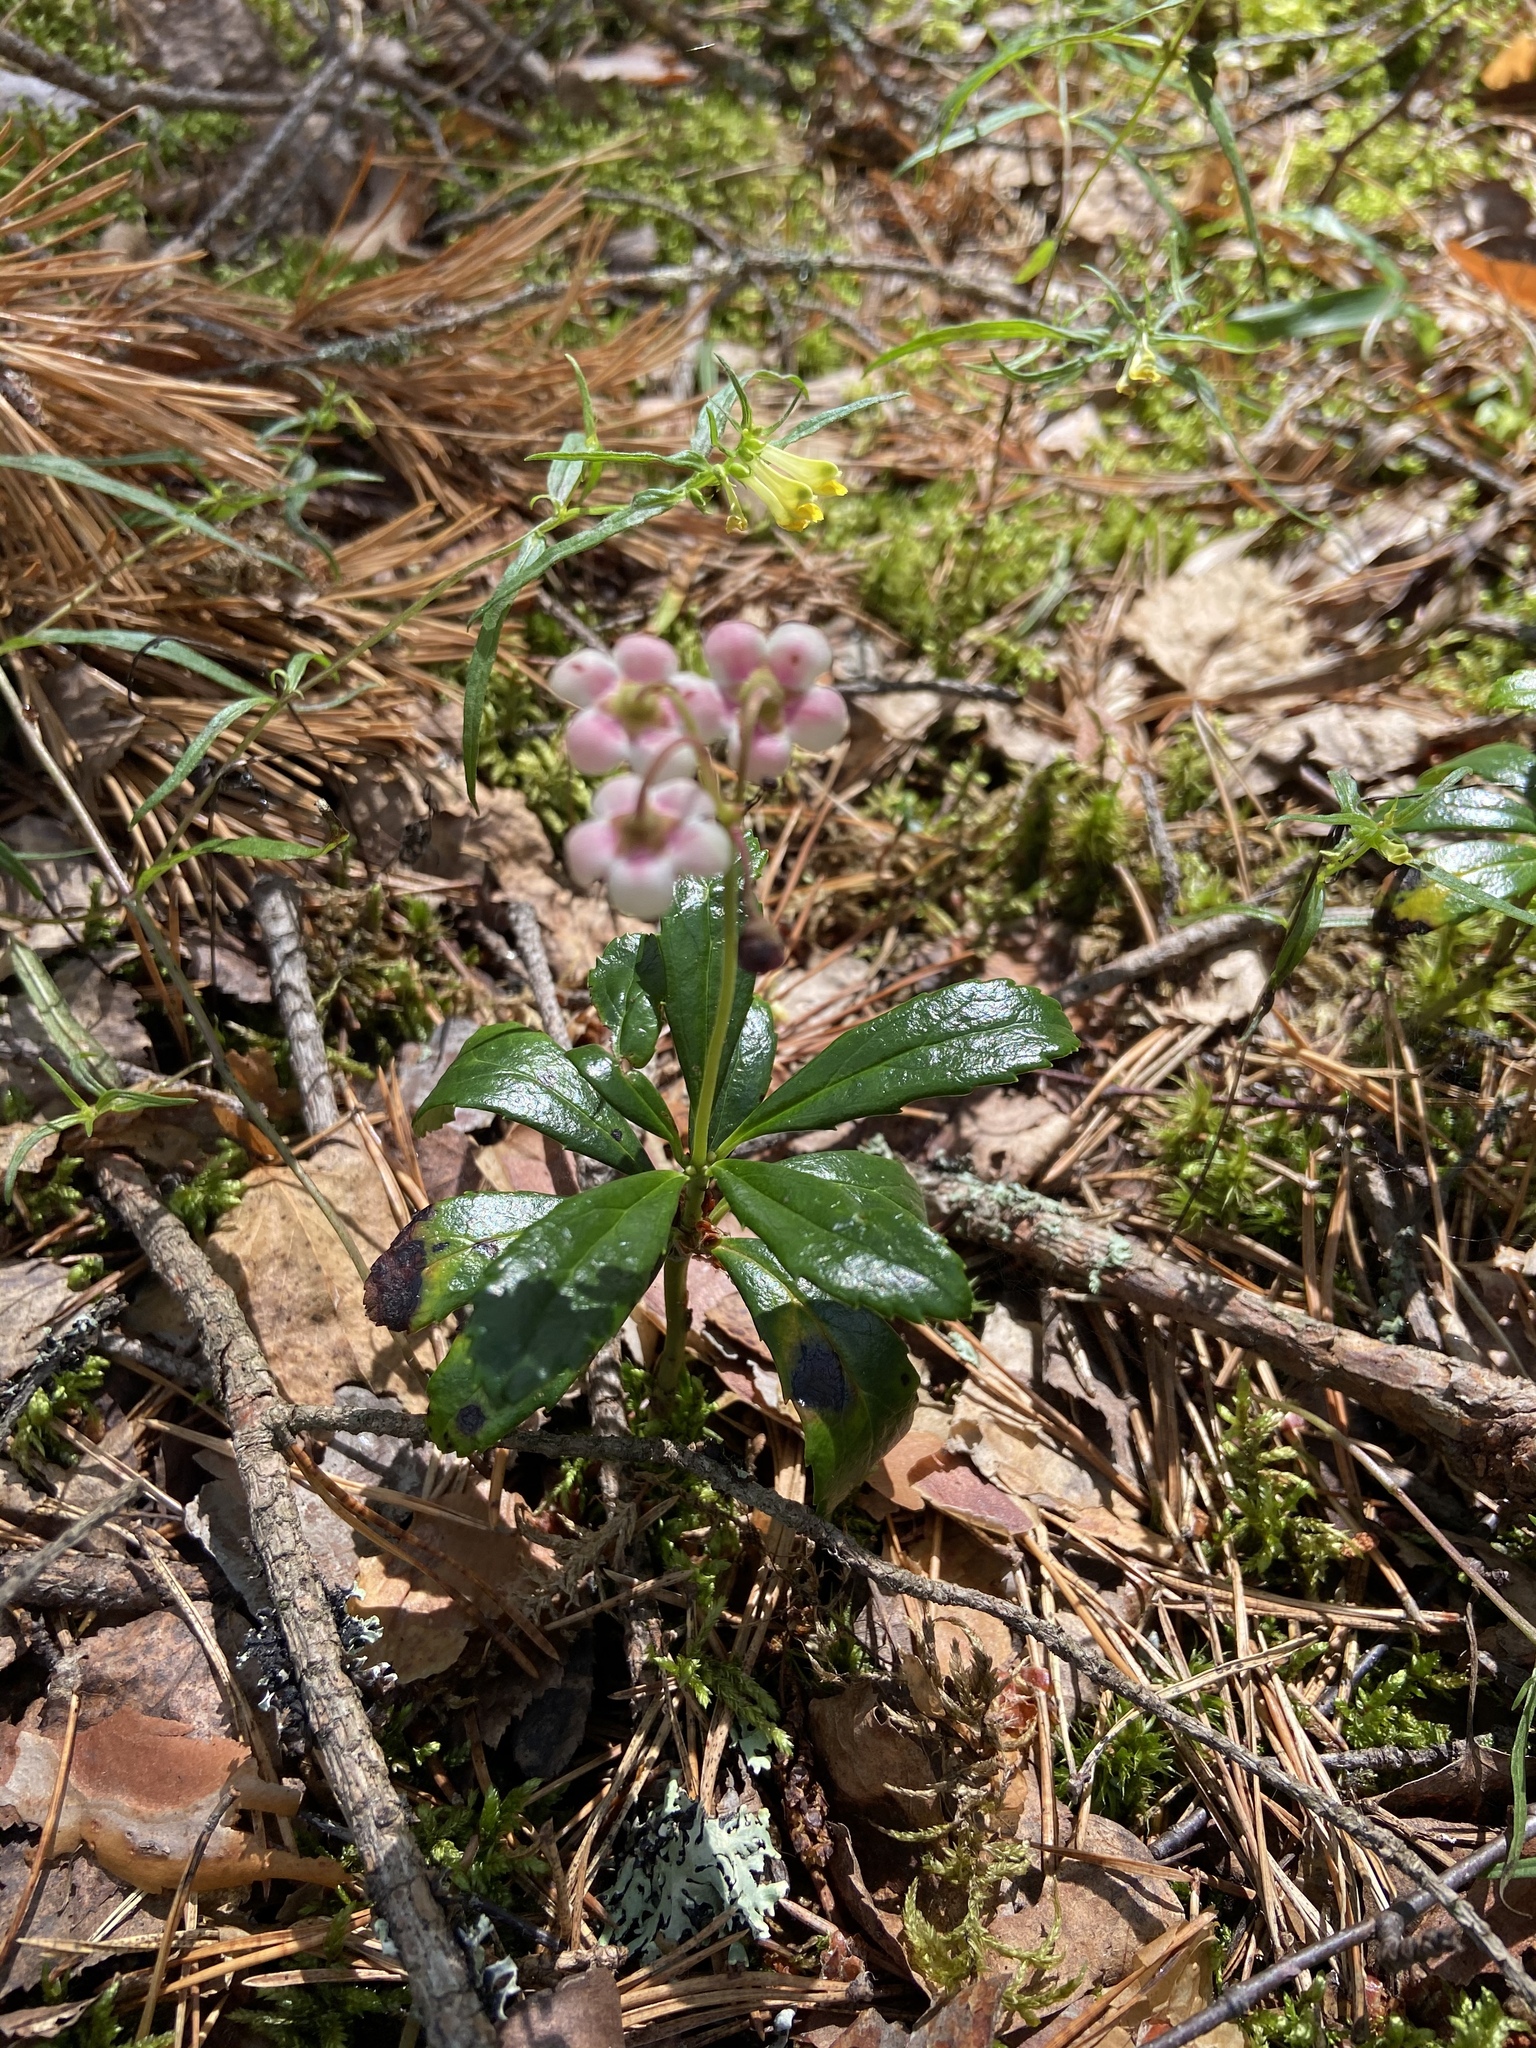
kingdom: Plantae
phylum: Tracheophyta
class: Magnoliopsida
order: Ericales
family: Ericaceae
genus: Chimaphila
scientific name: Chimaphila umbellata
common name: Pipsissewa
